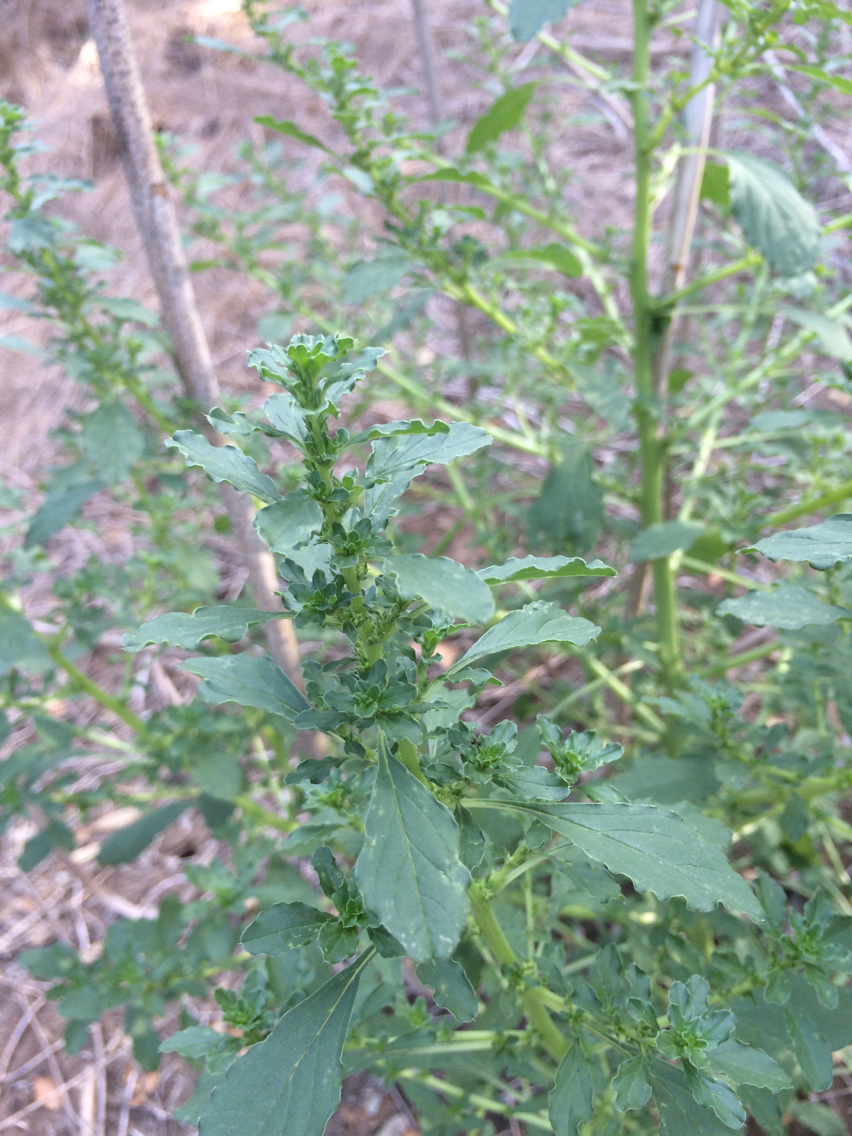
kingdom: Plantae
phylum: Tracheophyta
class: Magnoliopsida
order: Caryophyllales
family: Amaranthaceae
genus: Amaranthus
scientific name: Amaranthus albus
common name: White pigweed
